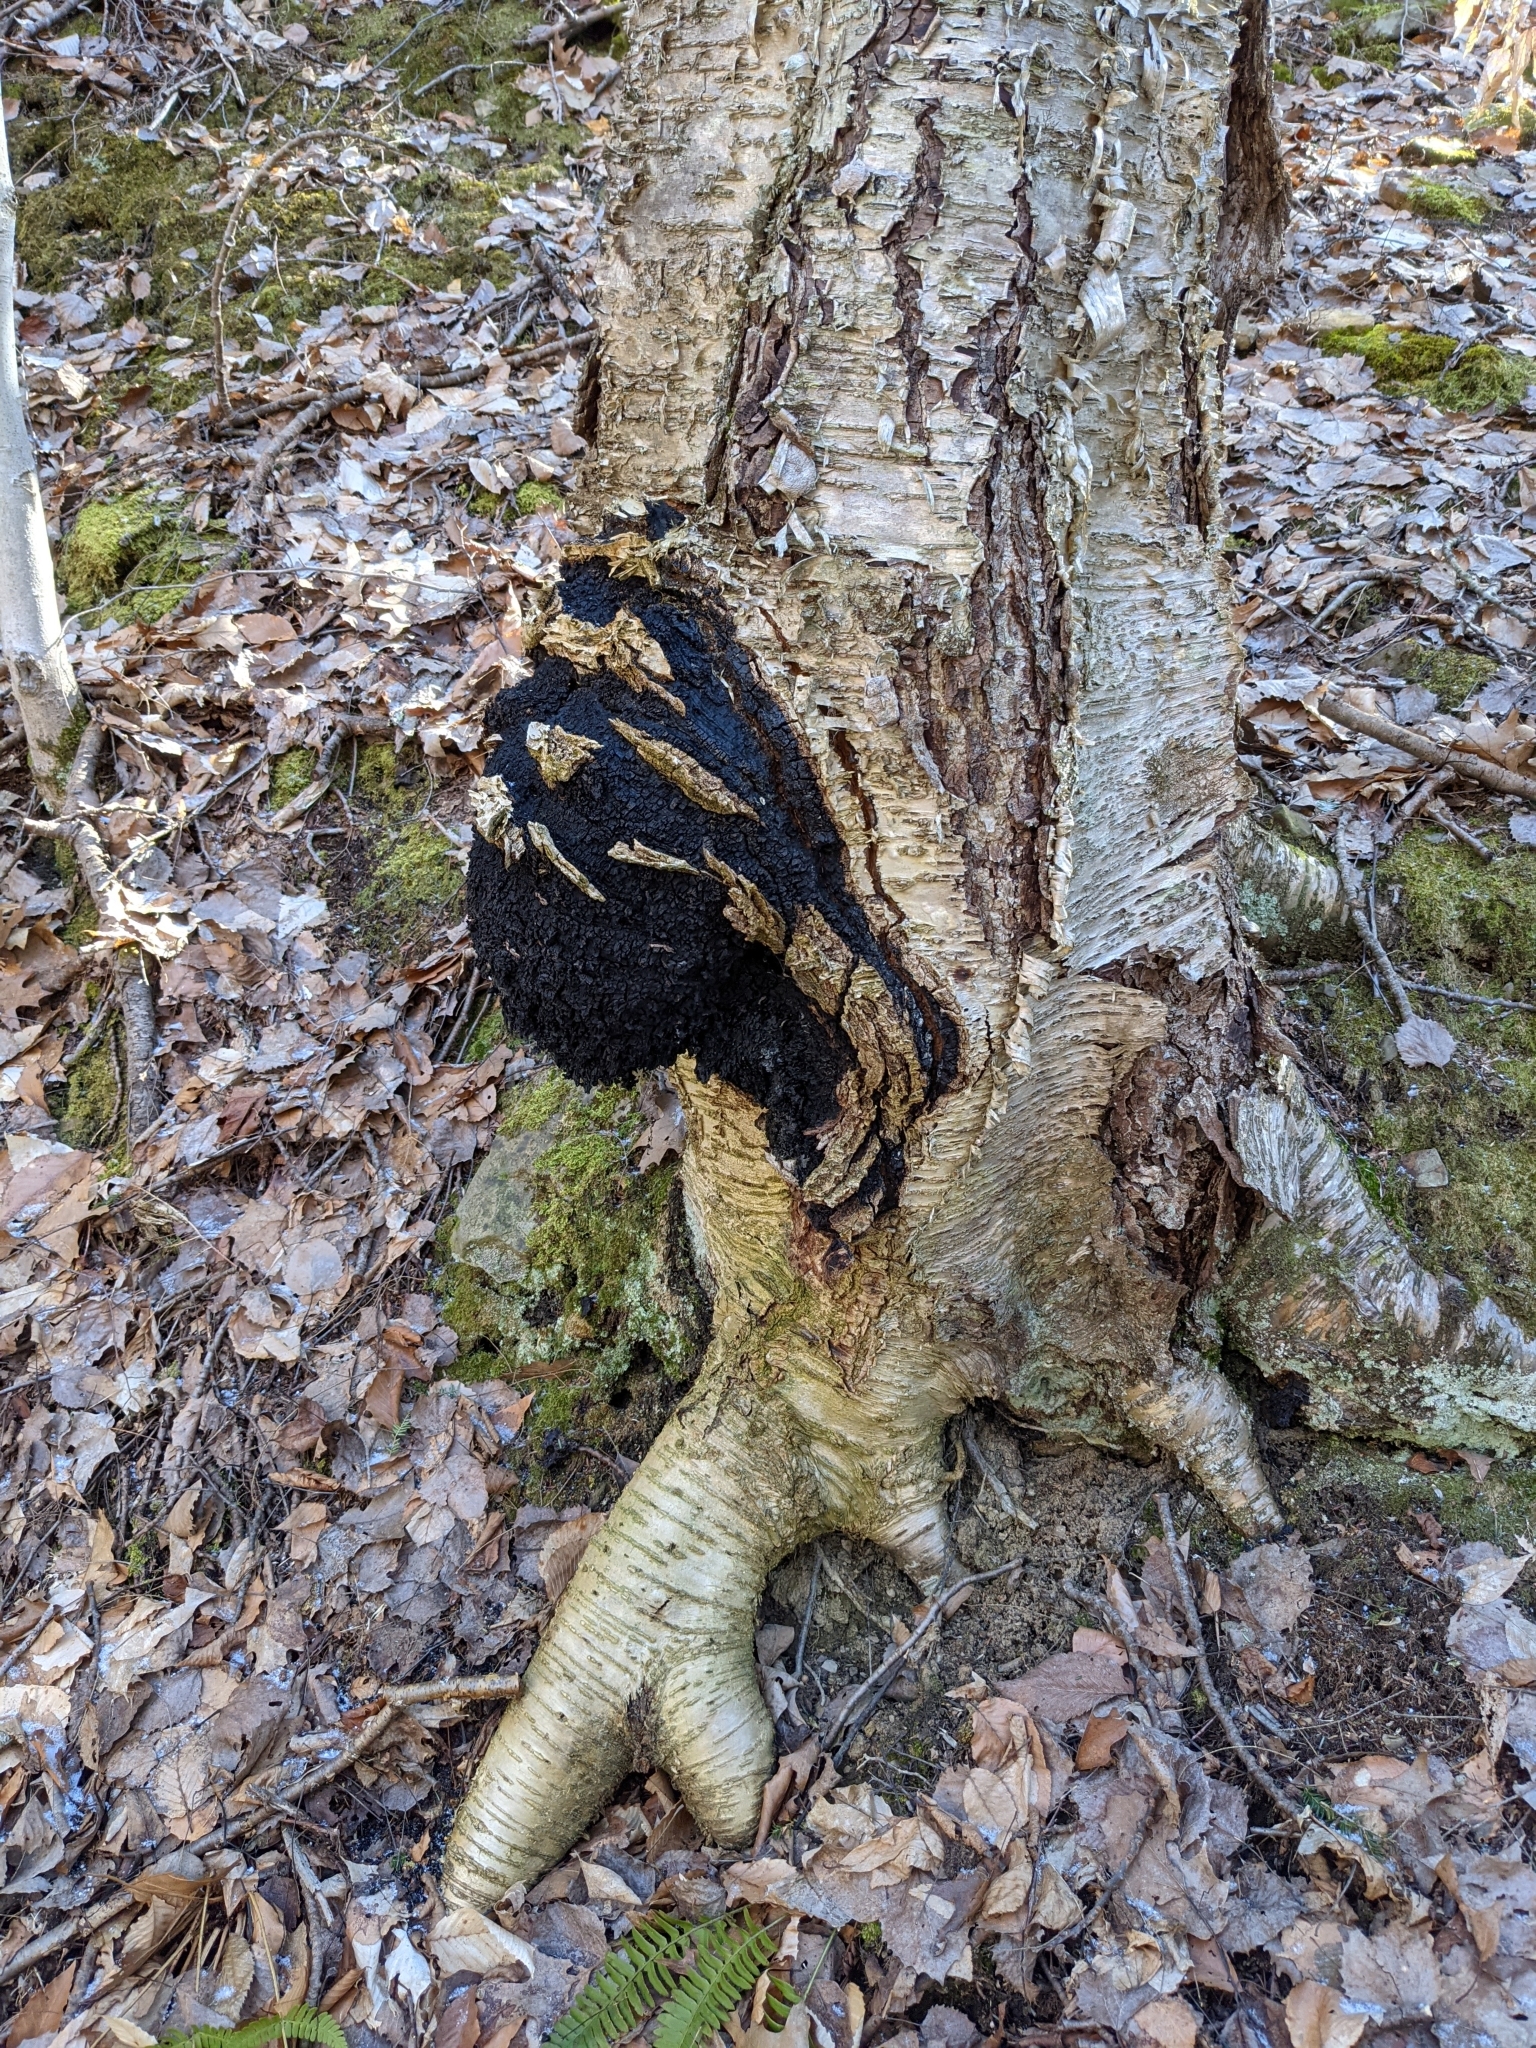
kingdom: Fungi
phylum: Basidiomycota
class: Agaricomycetes
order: Hymenochaetales
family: Hymenochaetaceae
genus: Inonotus
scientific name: Inonotus obliquus
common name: Chaga
